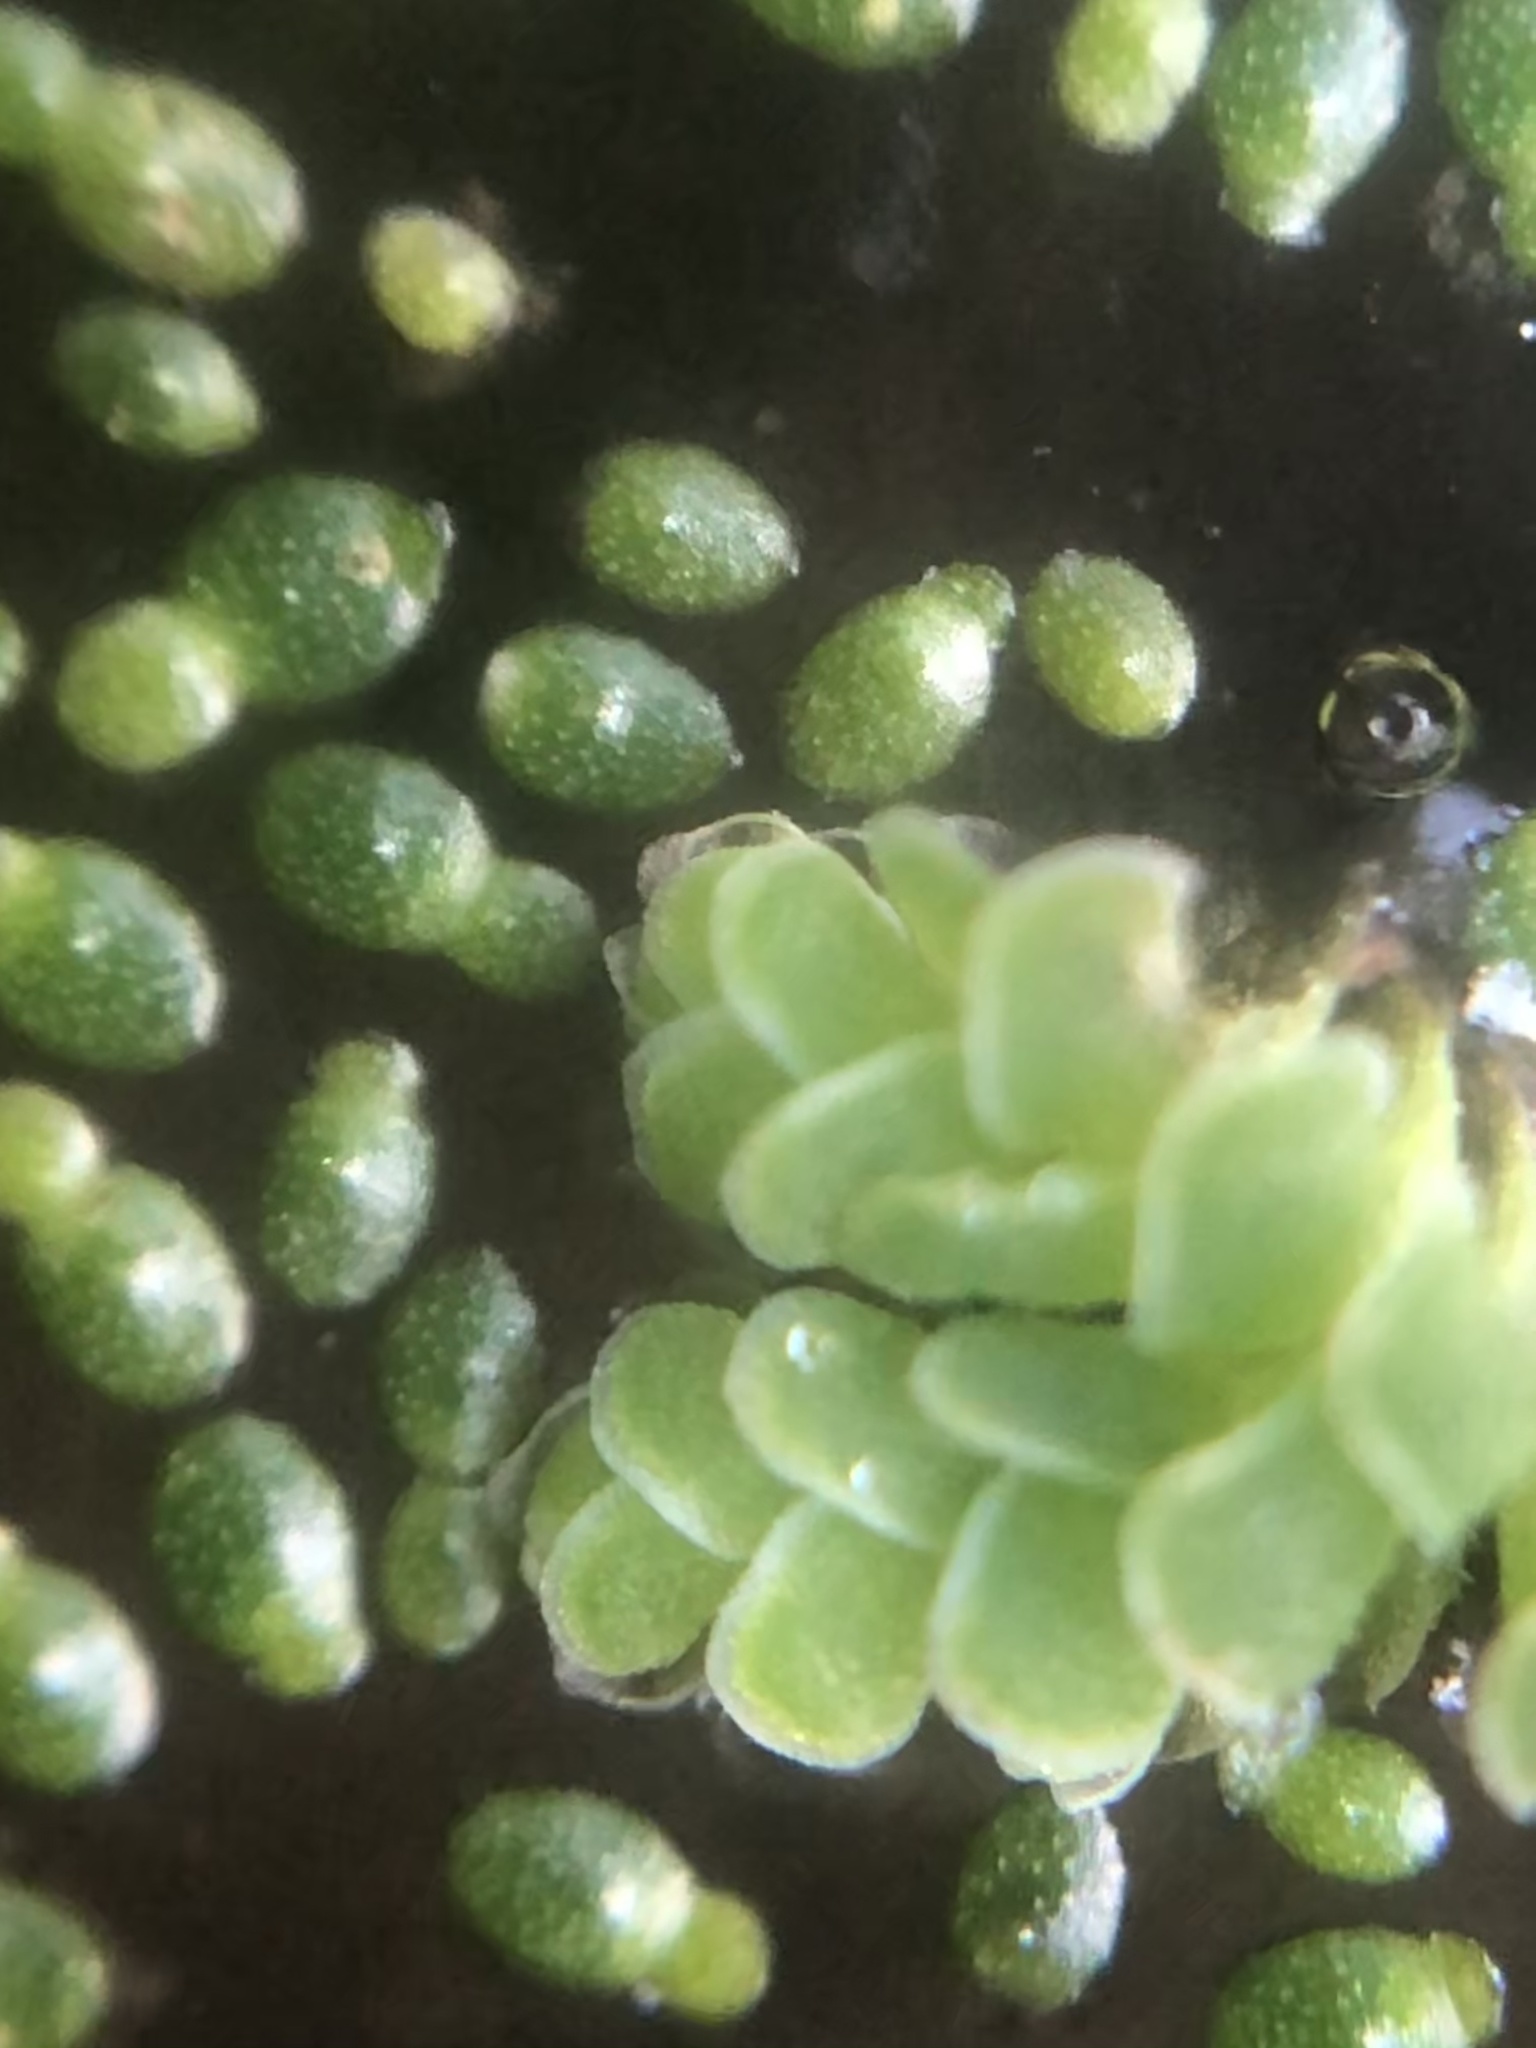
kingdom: Plantae
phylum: Tracheophyta
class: Liliopsida
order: Alismatales
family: Araceae
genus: Wolffia
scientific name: Wolffia brasiliensis
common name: Brazilian watermeal
